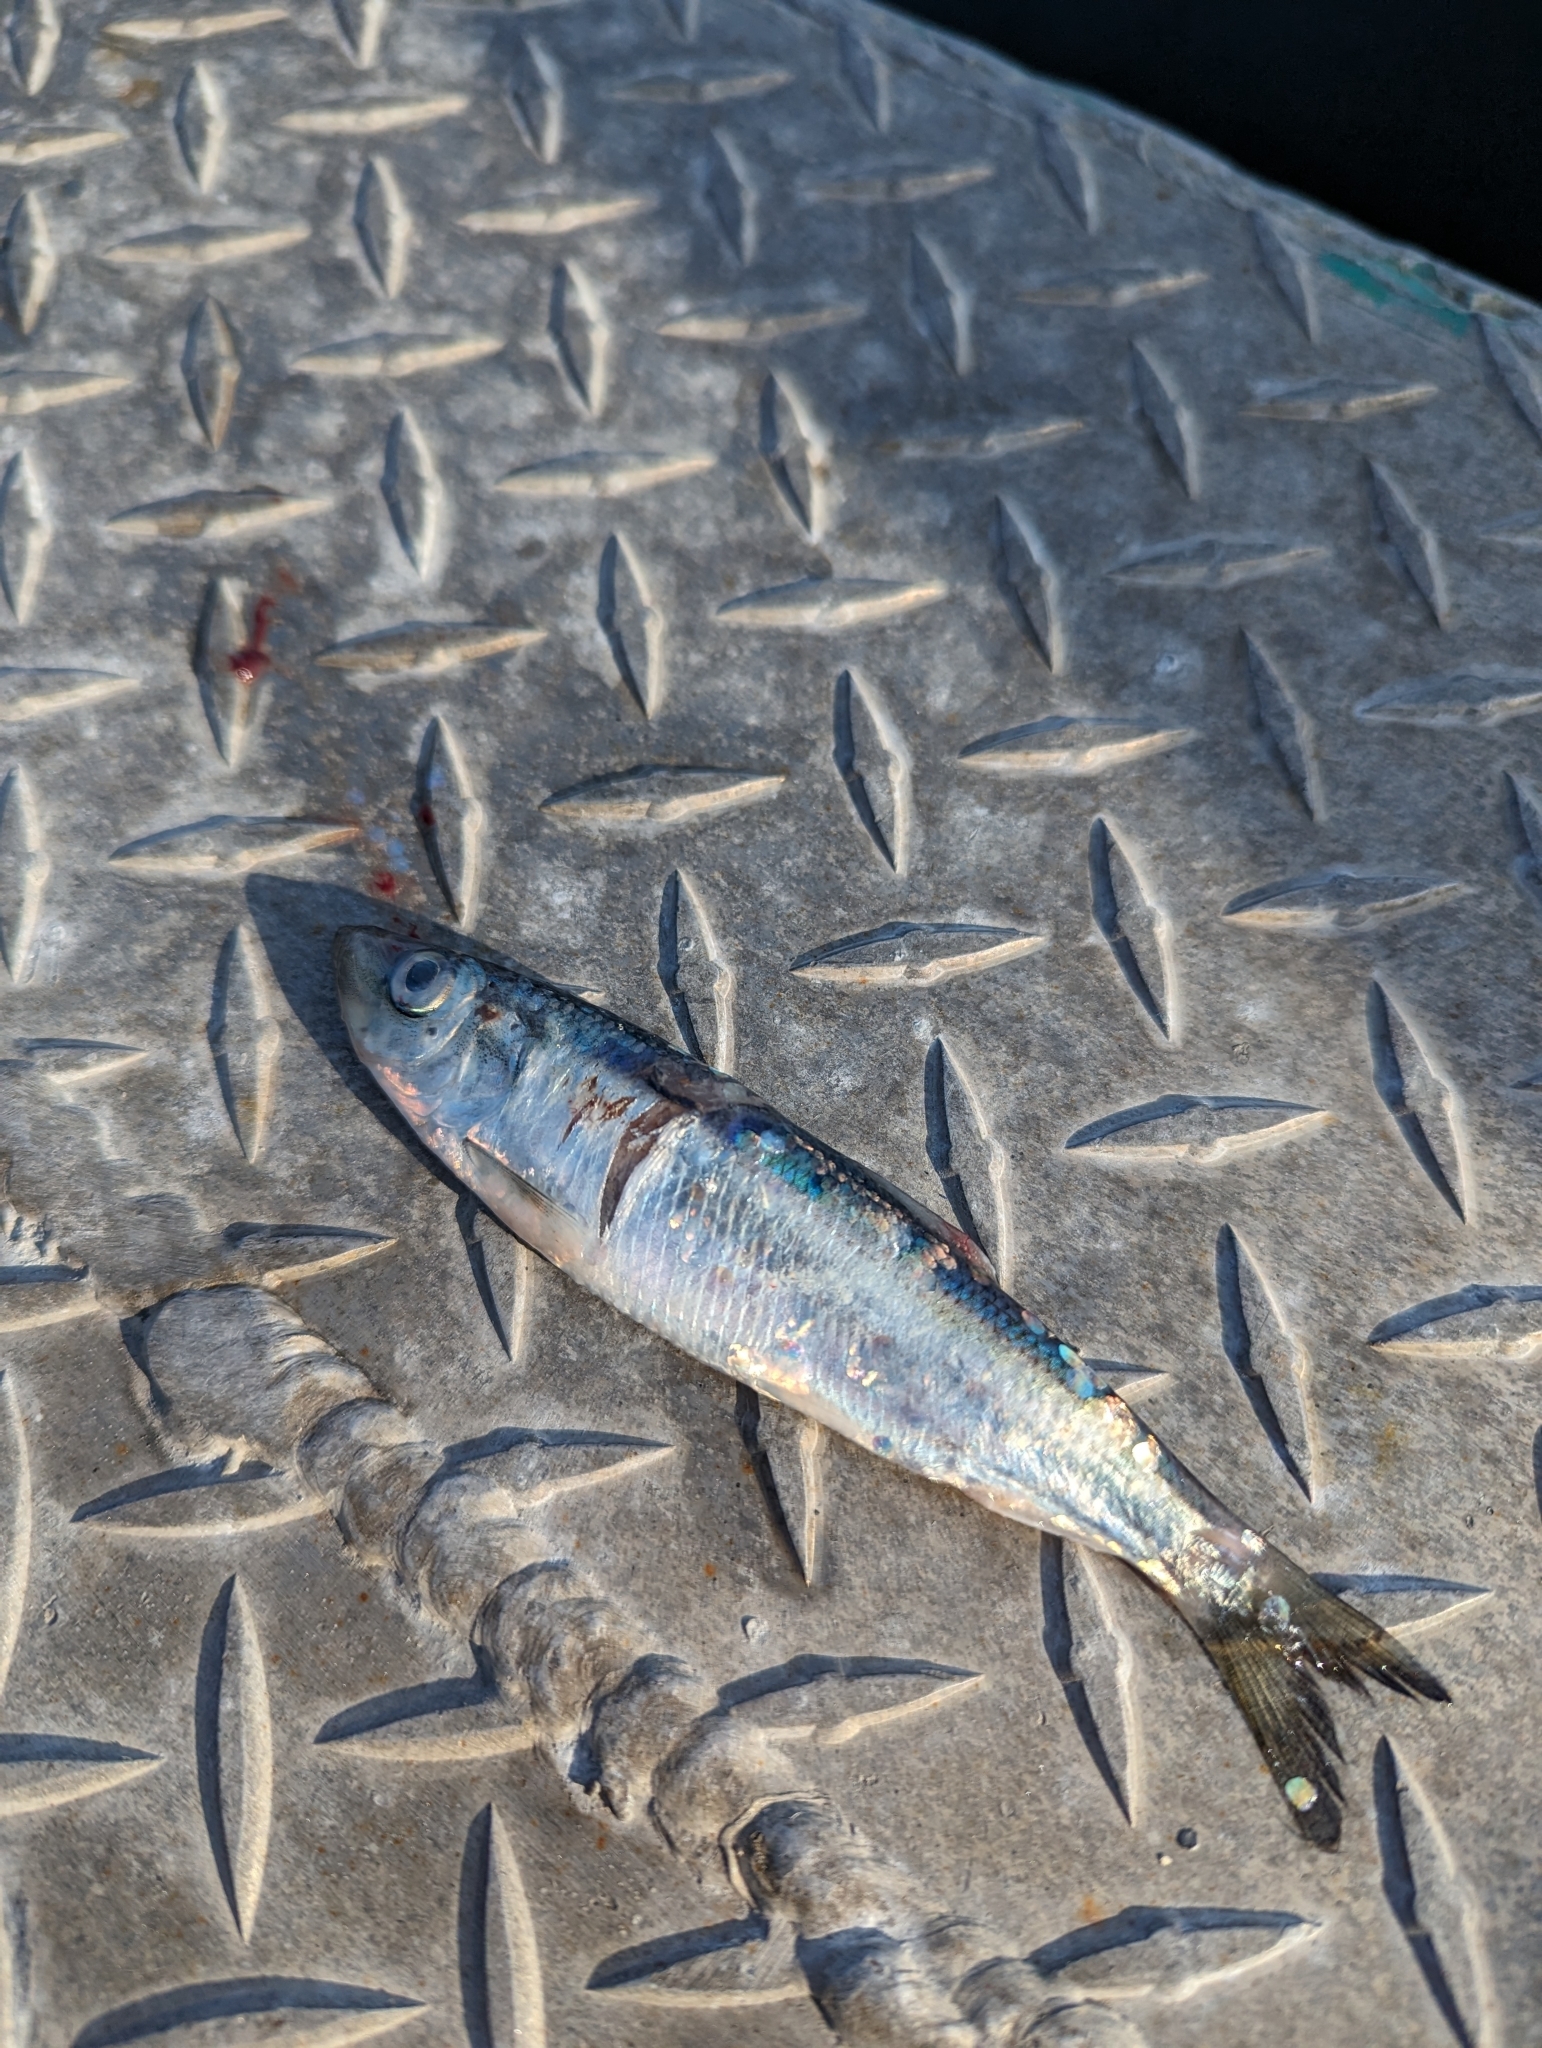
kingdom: Animalia
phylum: Chordata
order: Clupeiformes
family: Clupeidae
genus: Clupea
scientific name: Clupea harengus
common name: Herring
